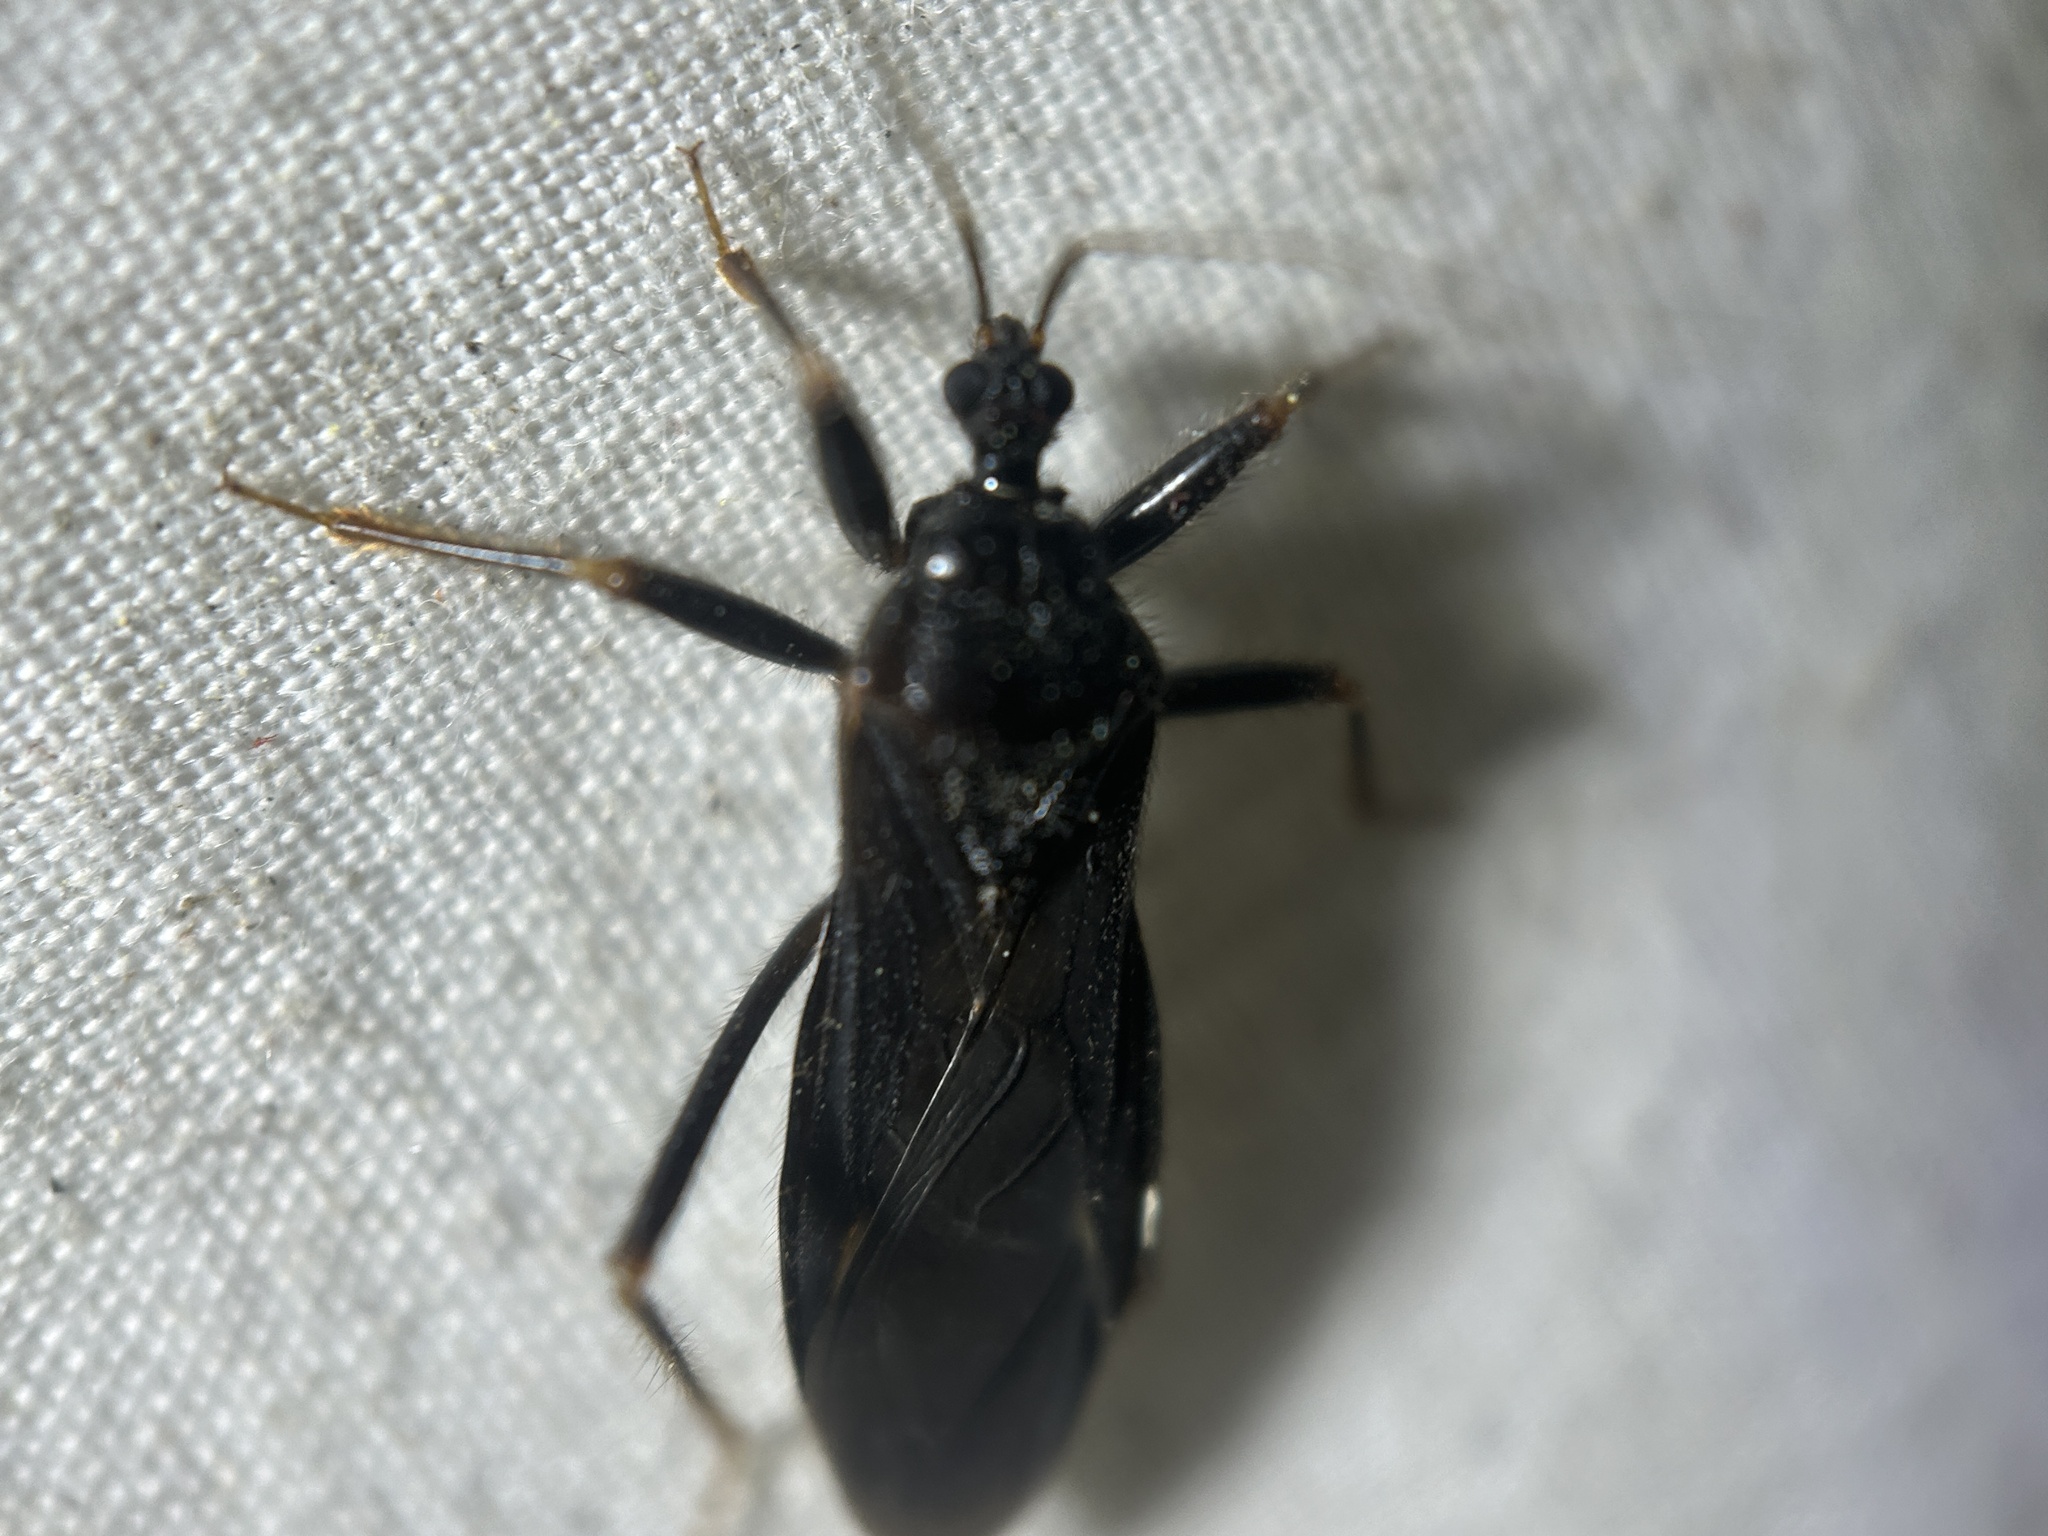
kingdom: Animalia
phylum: Arthropoda
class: Insecta
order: Hemiptera
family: Reduviidae
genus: Reduvius
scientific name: Reduvius personatus
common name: Masked hunter
